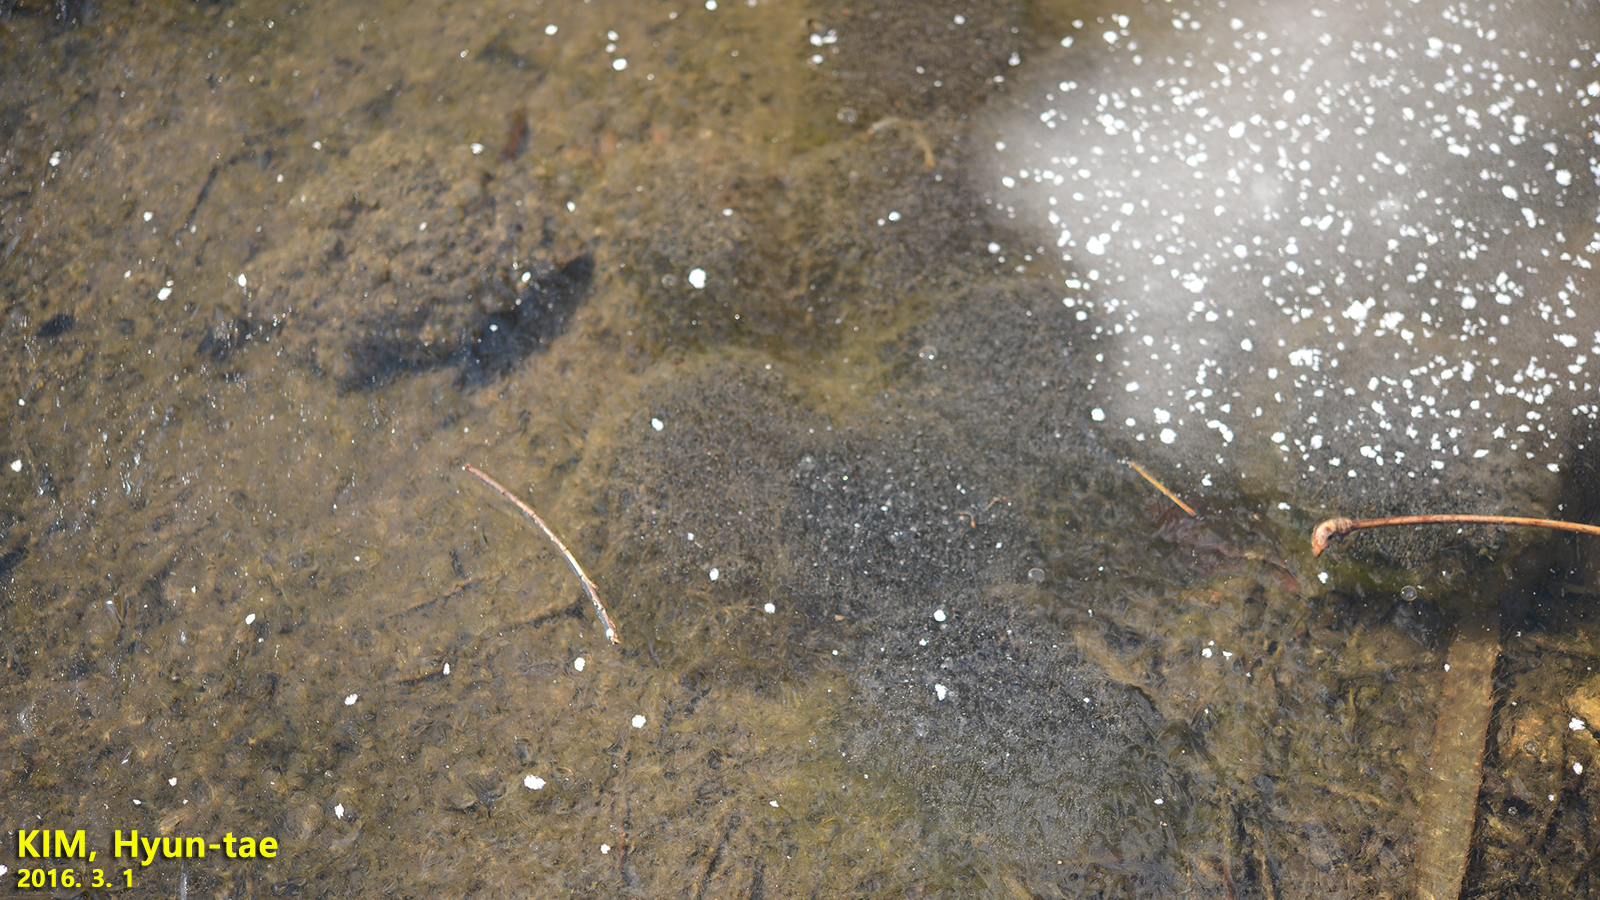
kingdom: Animalia
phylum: Chordata
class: Amphibia
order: Anura
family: Ranidae
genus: Rana
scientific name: Rana uenoi
